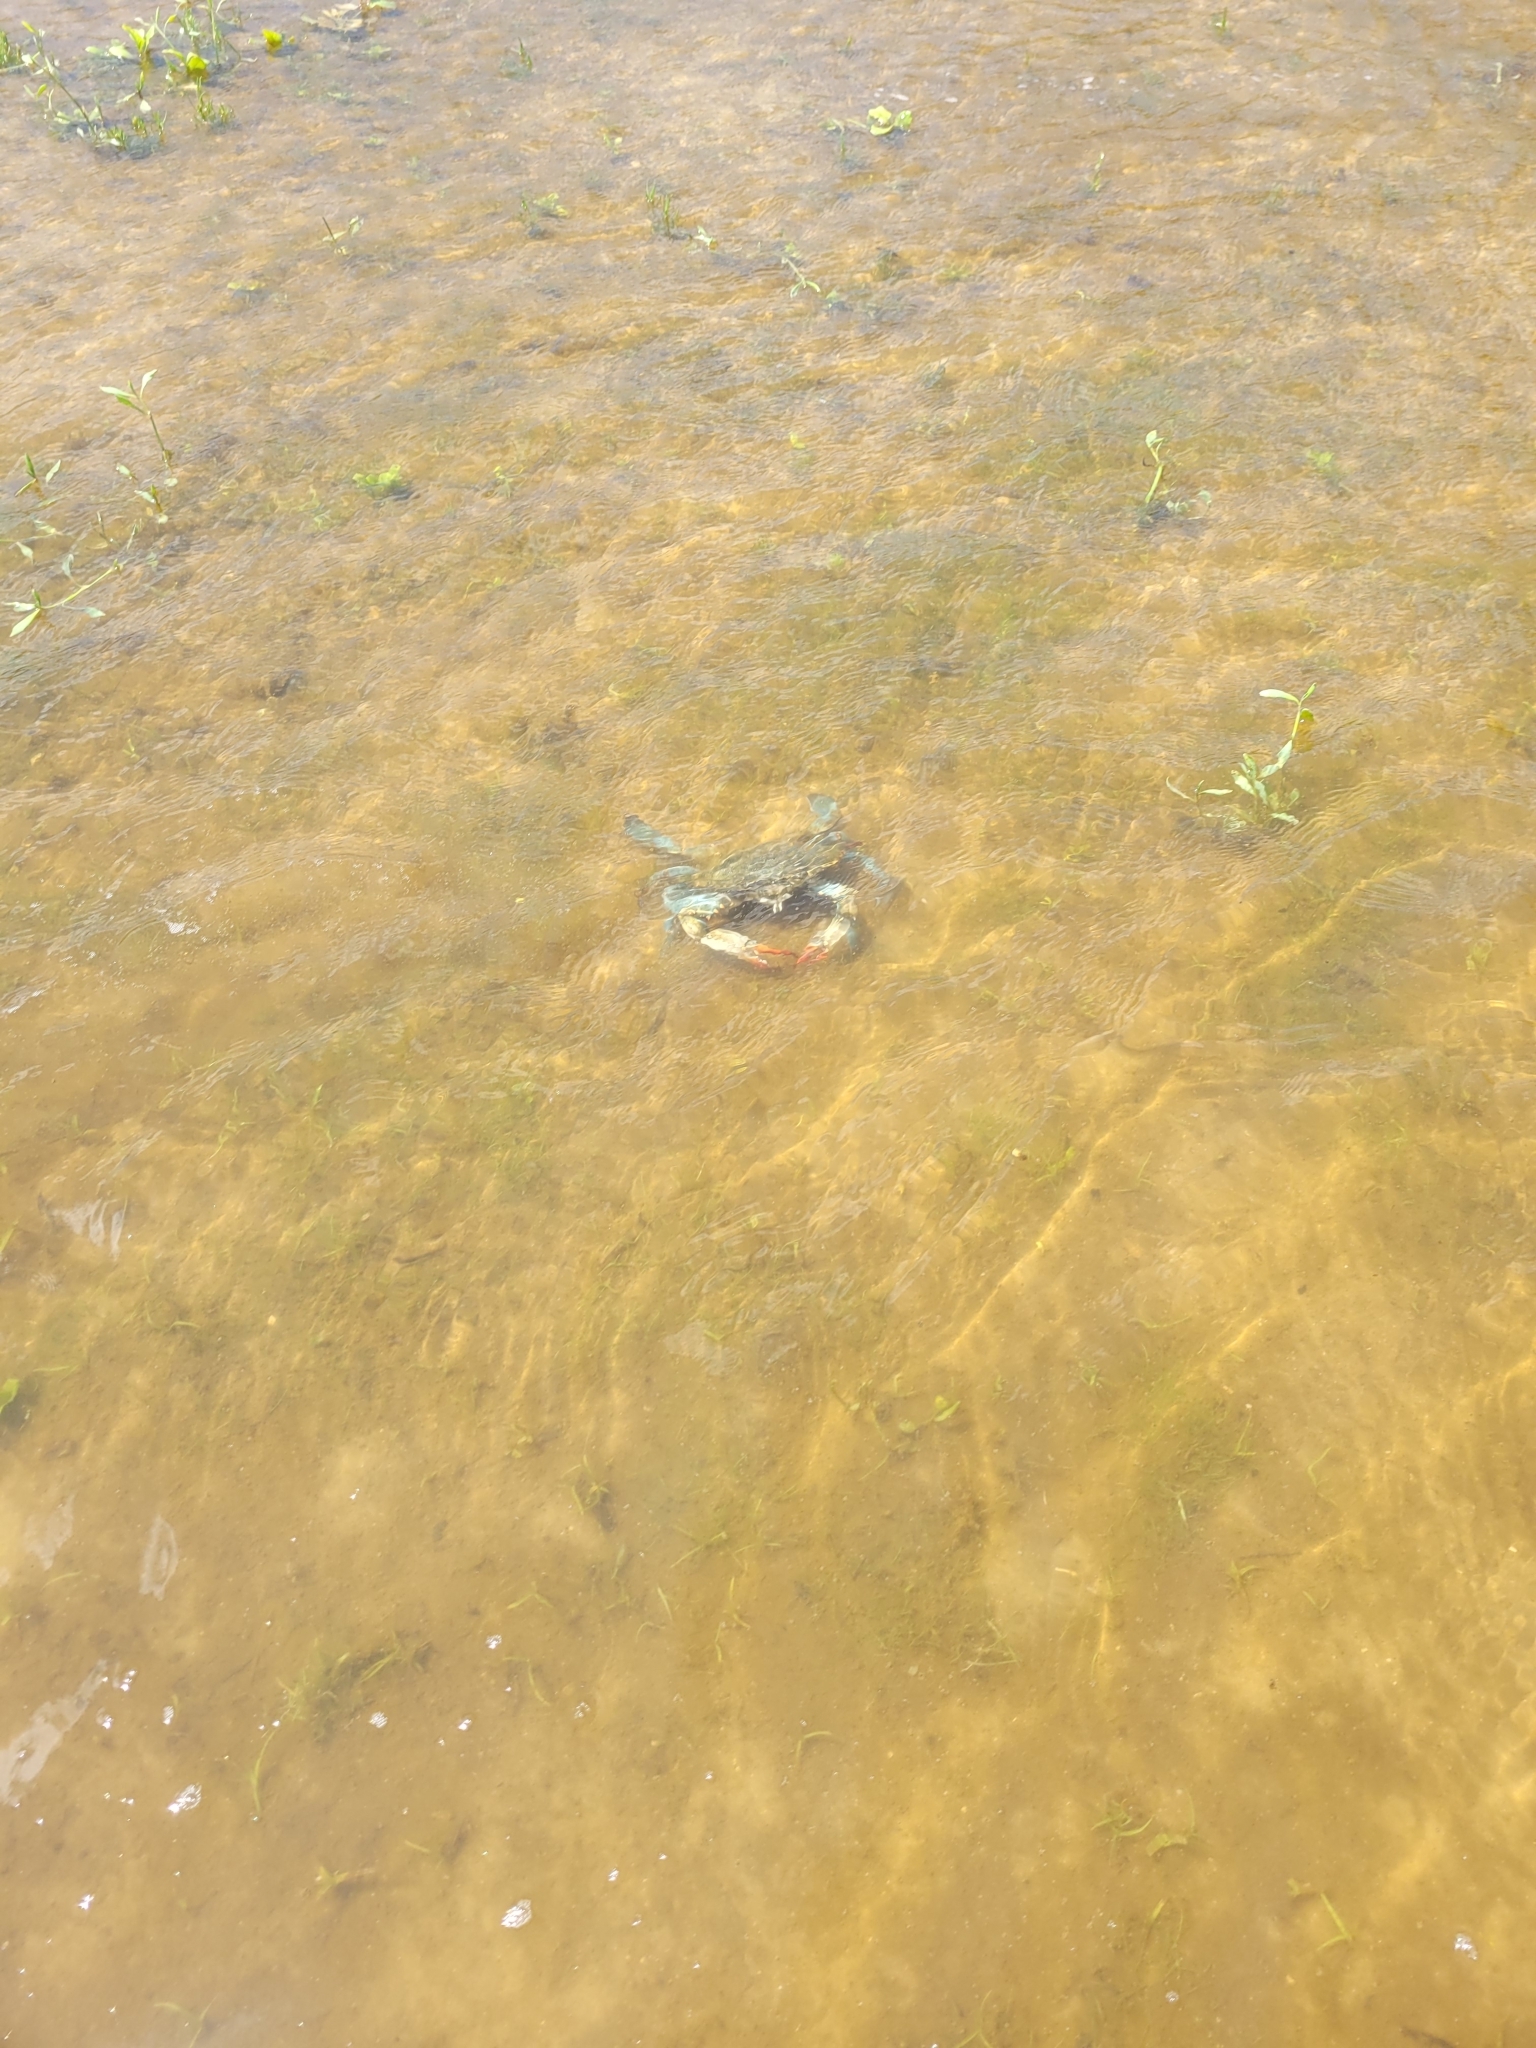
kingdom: Animalia
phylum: Arthropoda
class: Malacostraca
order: Decapoda
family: Portunidae
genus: Callinectes
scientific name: Callinectes sapidus
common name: Blue crab
